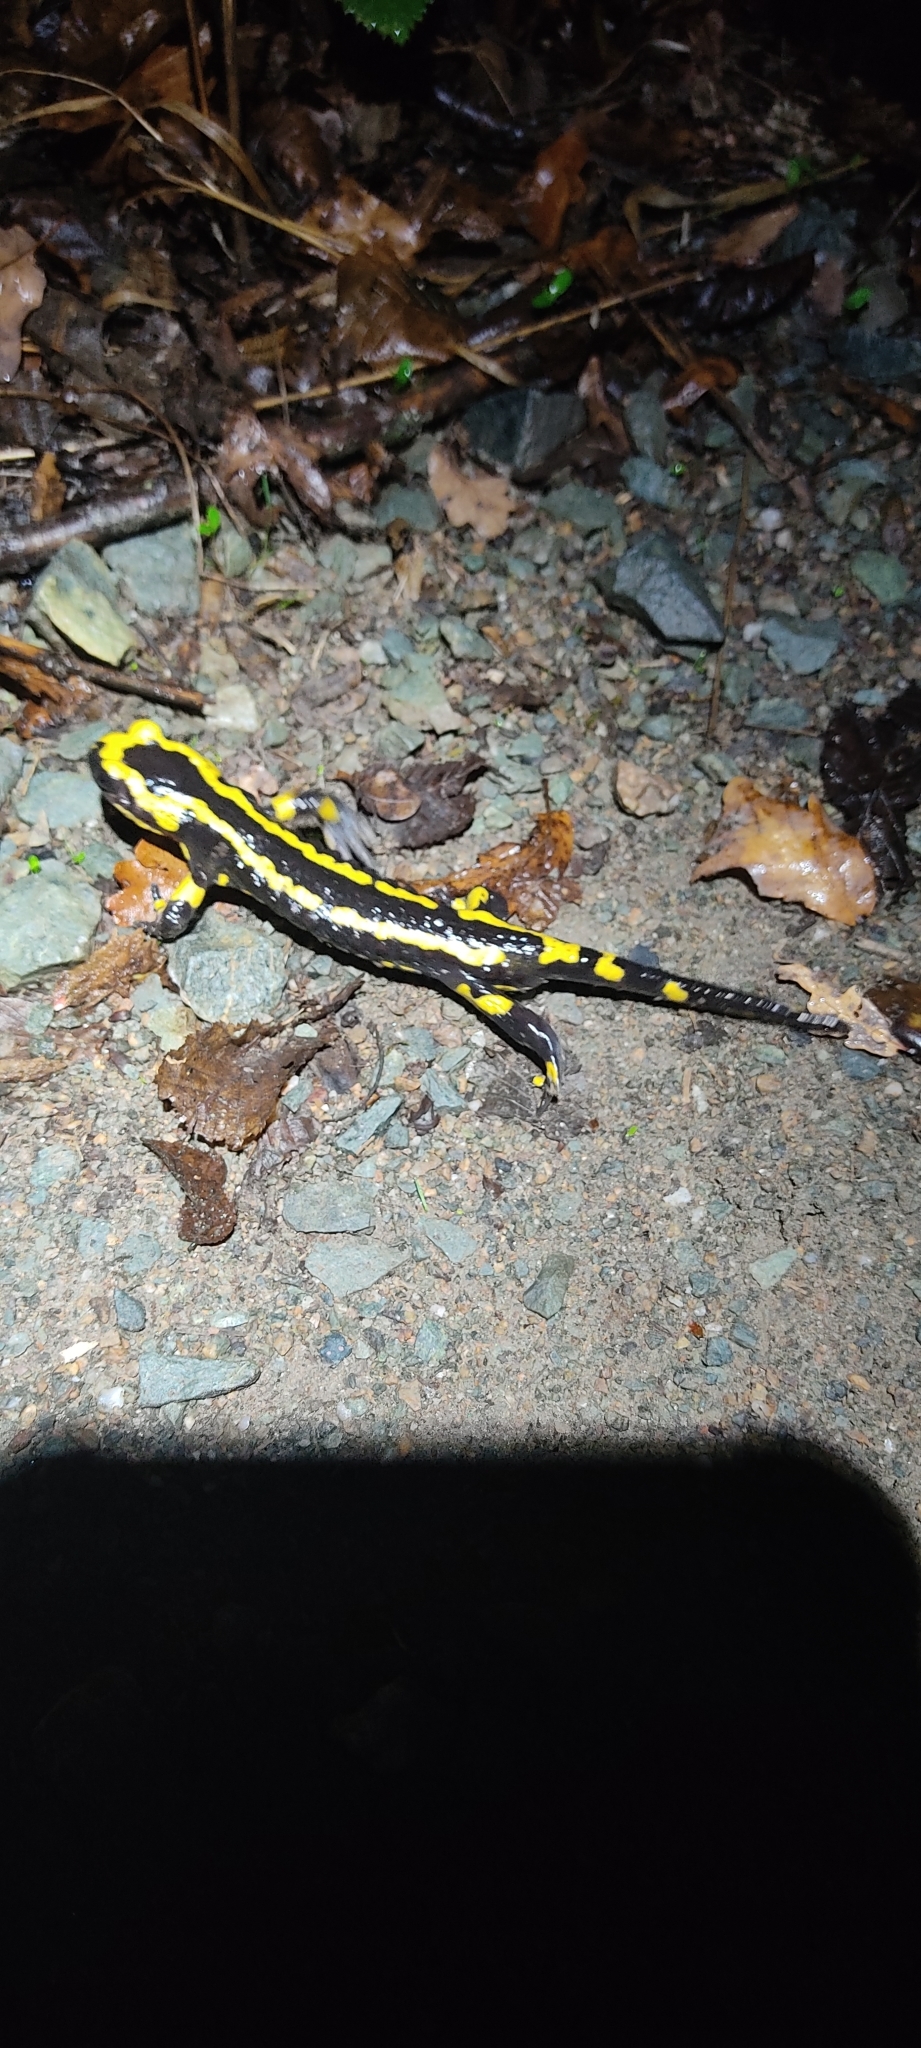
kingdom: Animalia
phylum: Chordata
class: Amphibia
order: Caudata
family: Salamandridae
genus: Salamandra
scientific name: Salamandra salamandra
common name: Fire salamander
